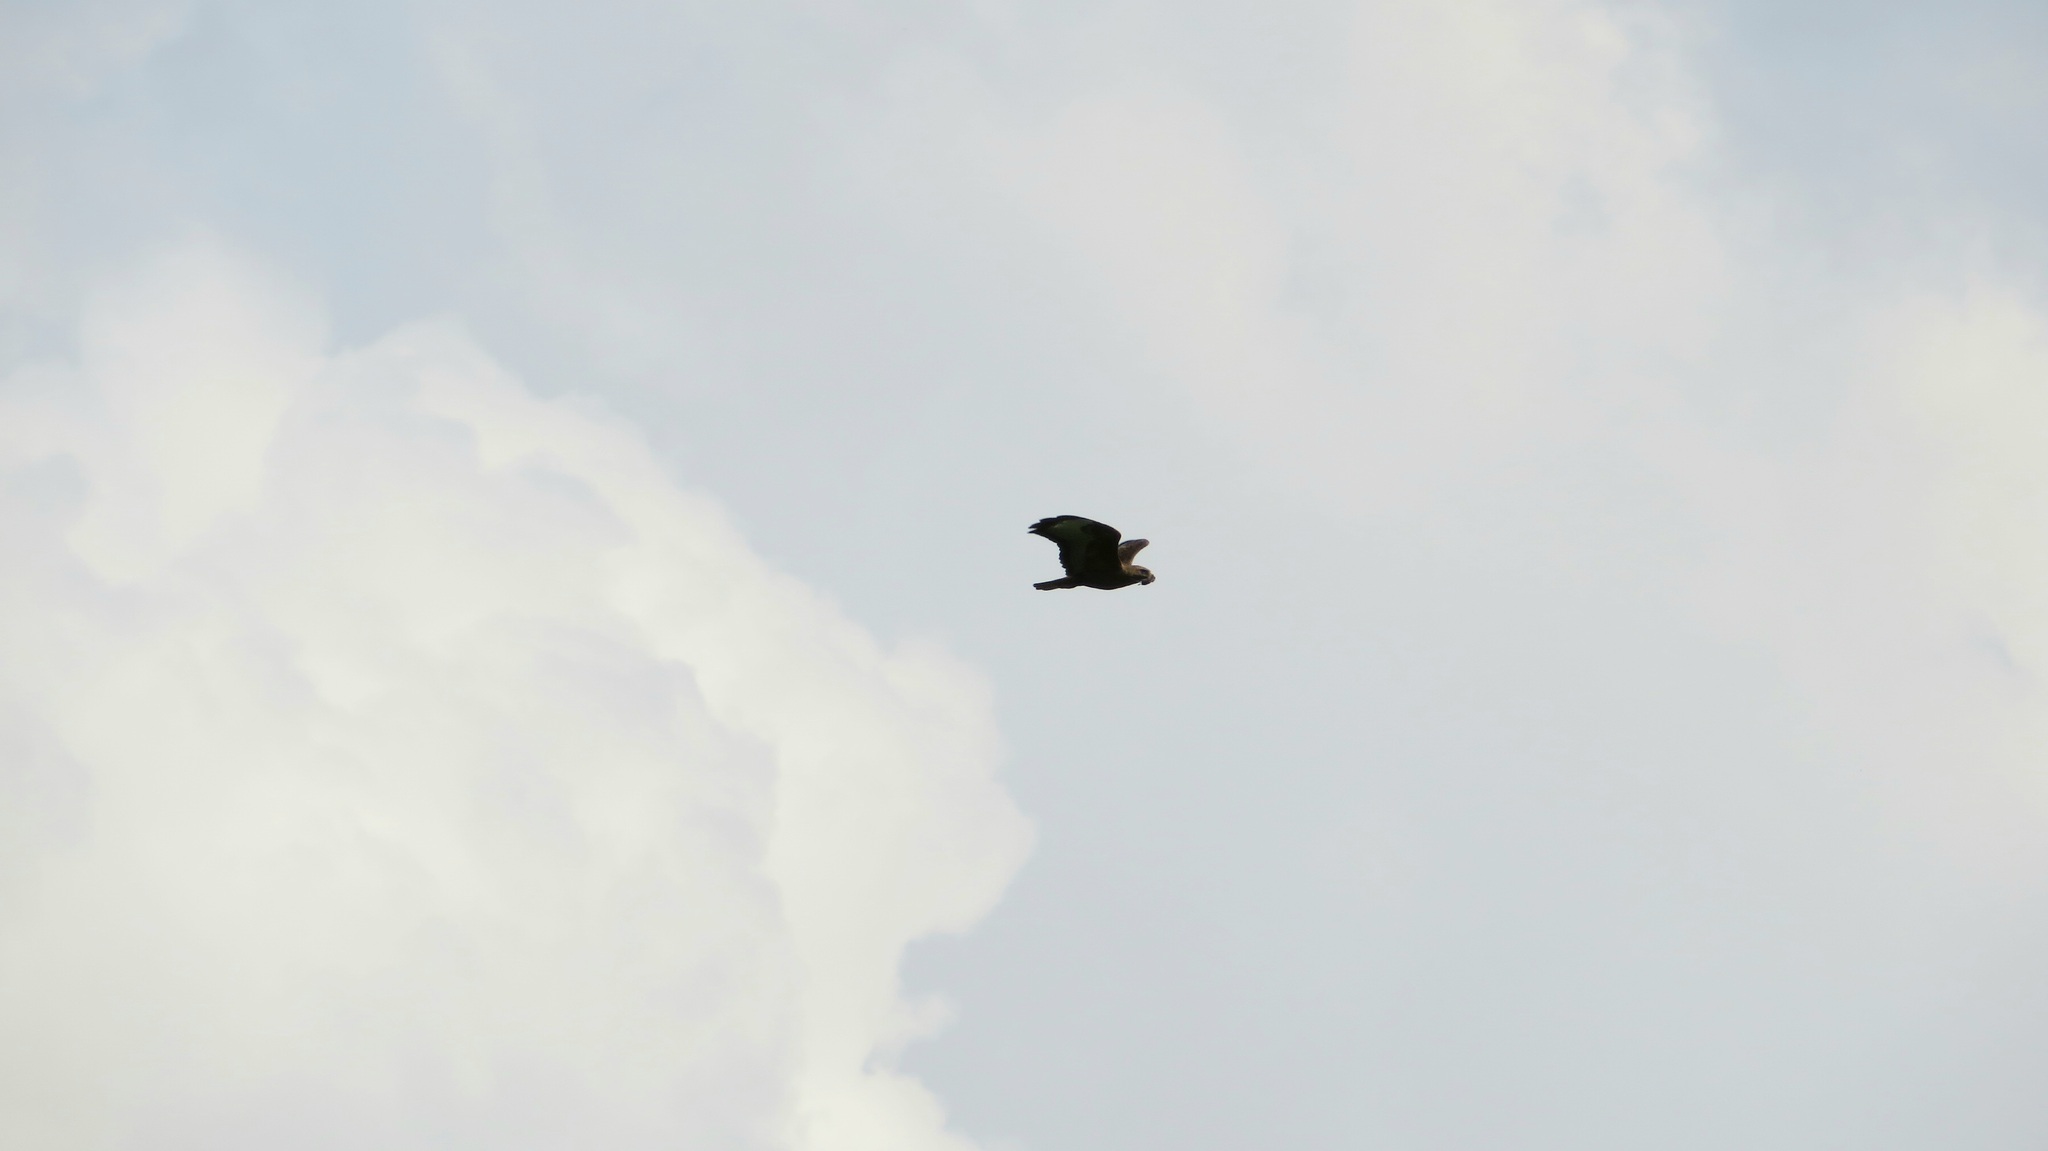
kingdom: Animalia
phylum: Chordata
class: Aves
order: Accipitriformes
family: Accipitridae
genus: Buteo
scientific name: Buteo buteo
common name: Common buzzard
